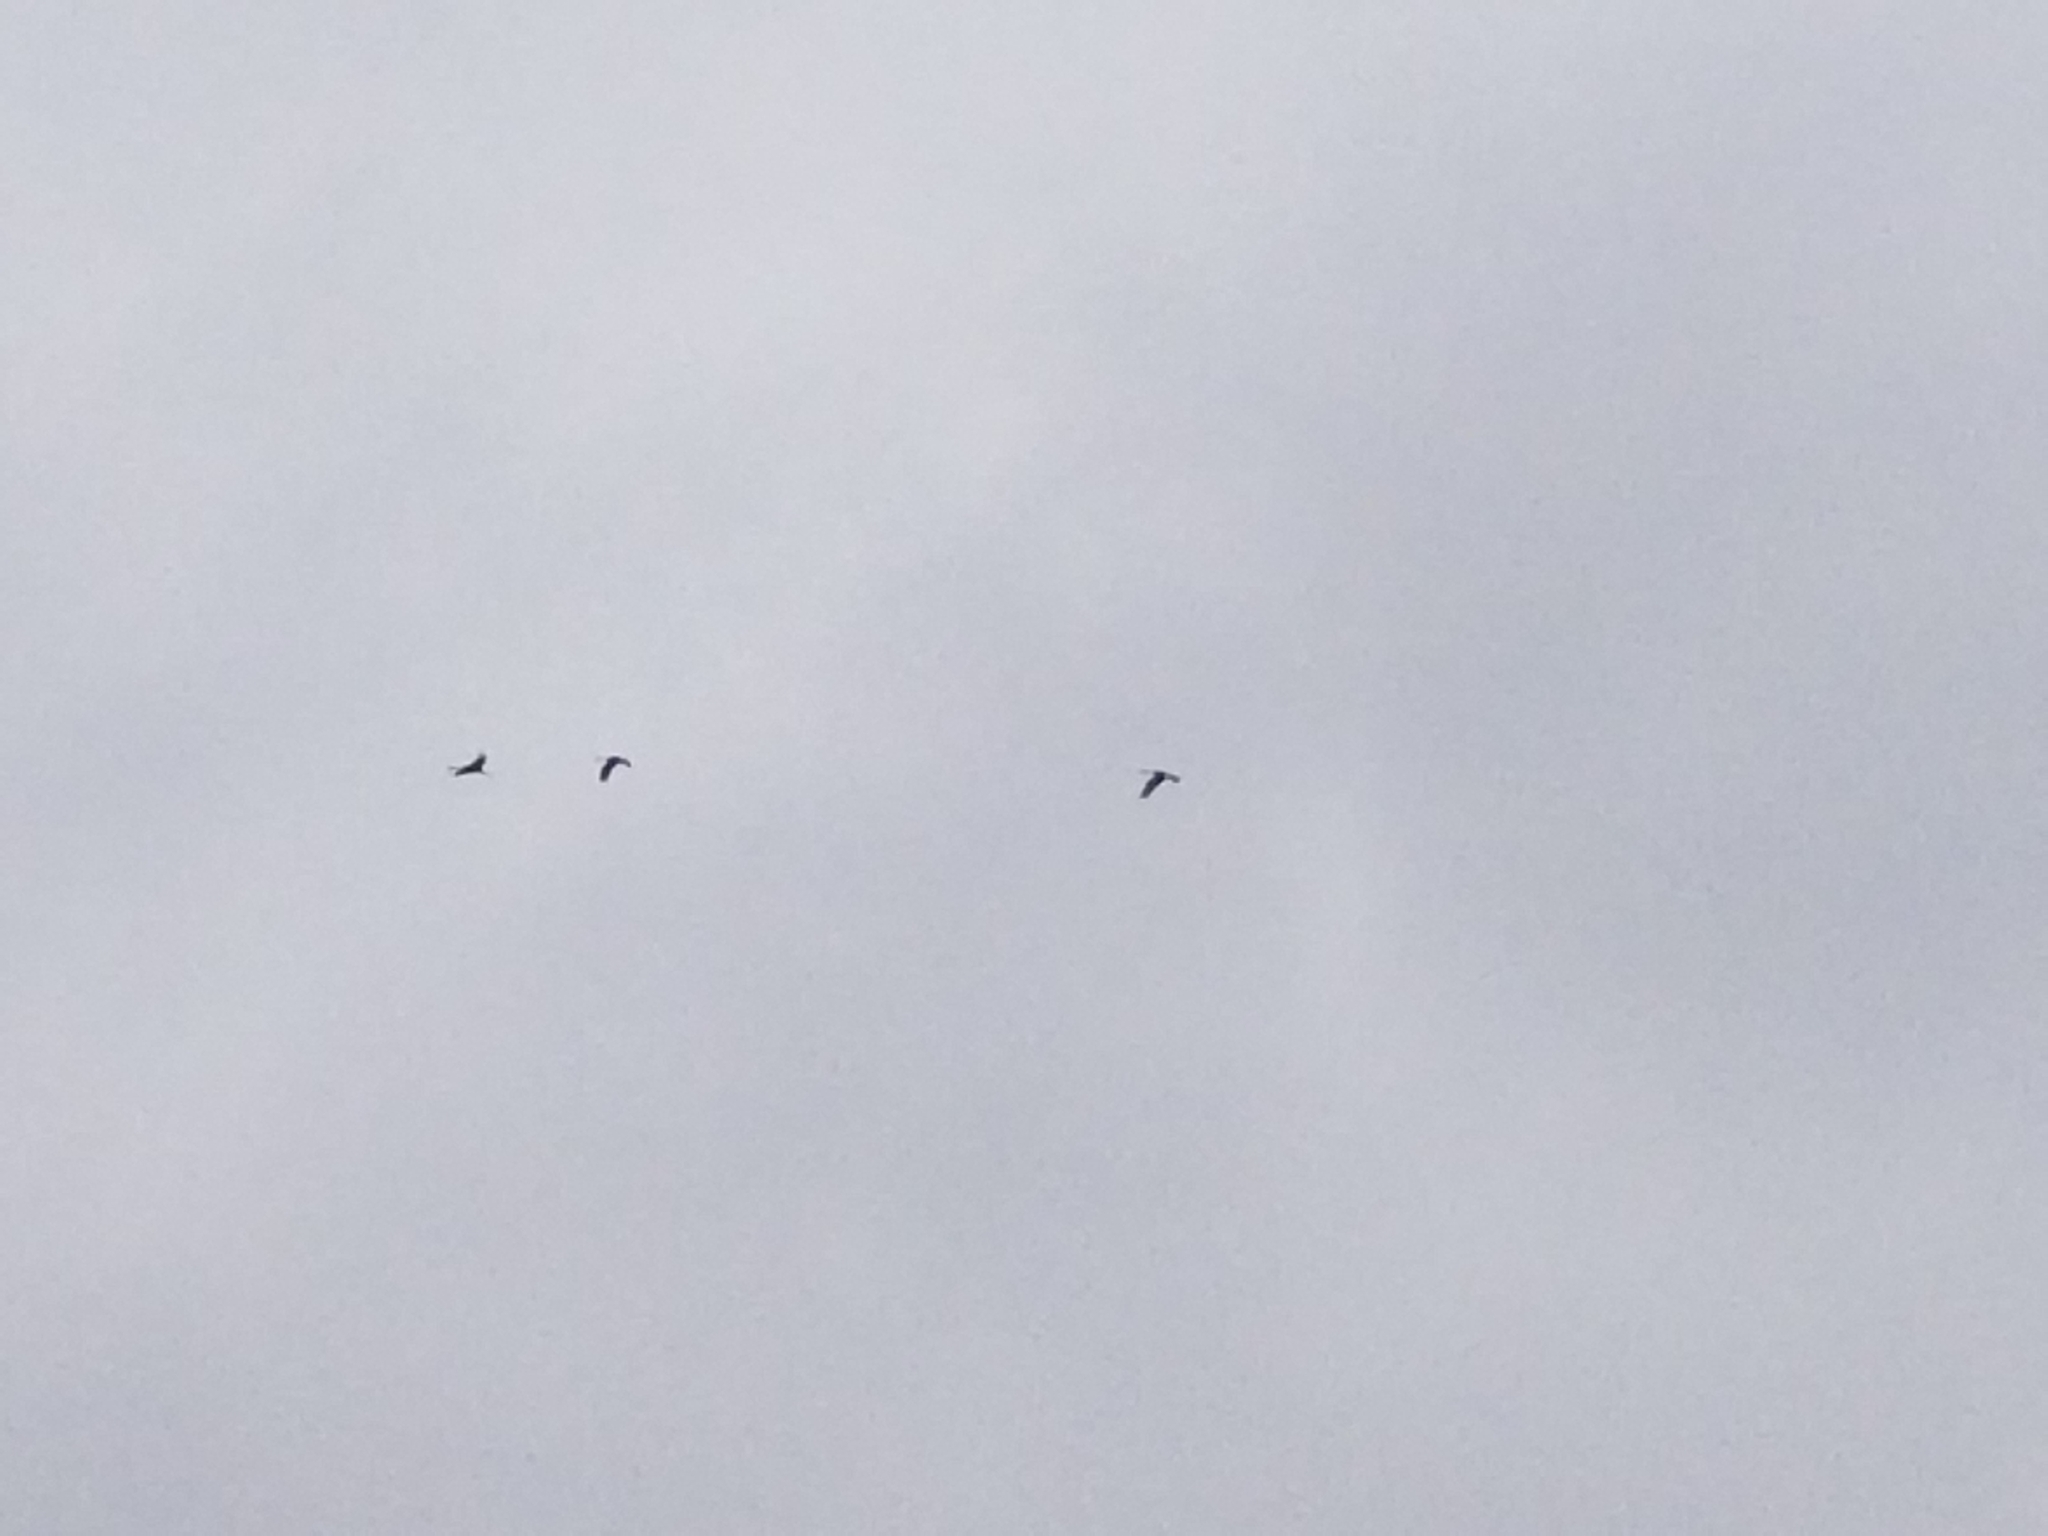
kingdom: Animalia
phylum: Chordata
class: Aves
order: Gruiformes
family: Gruidae
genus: Grus
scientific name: Grus canadensis
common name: Sandhill crane
